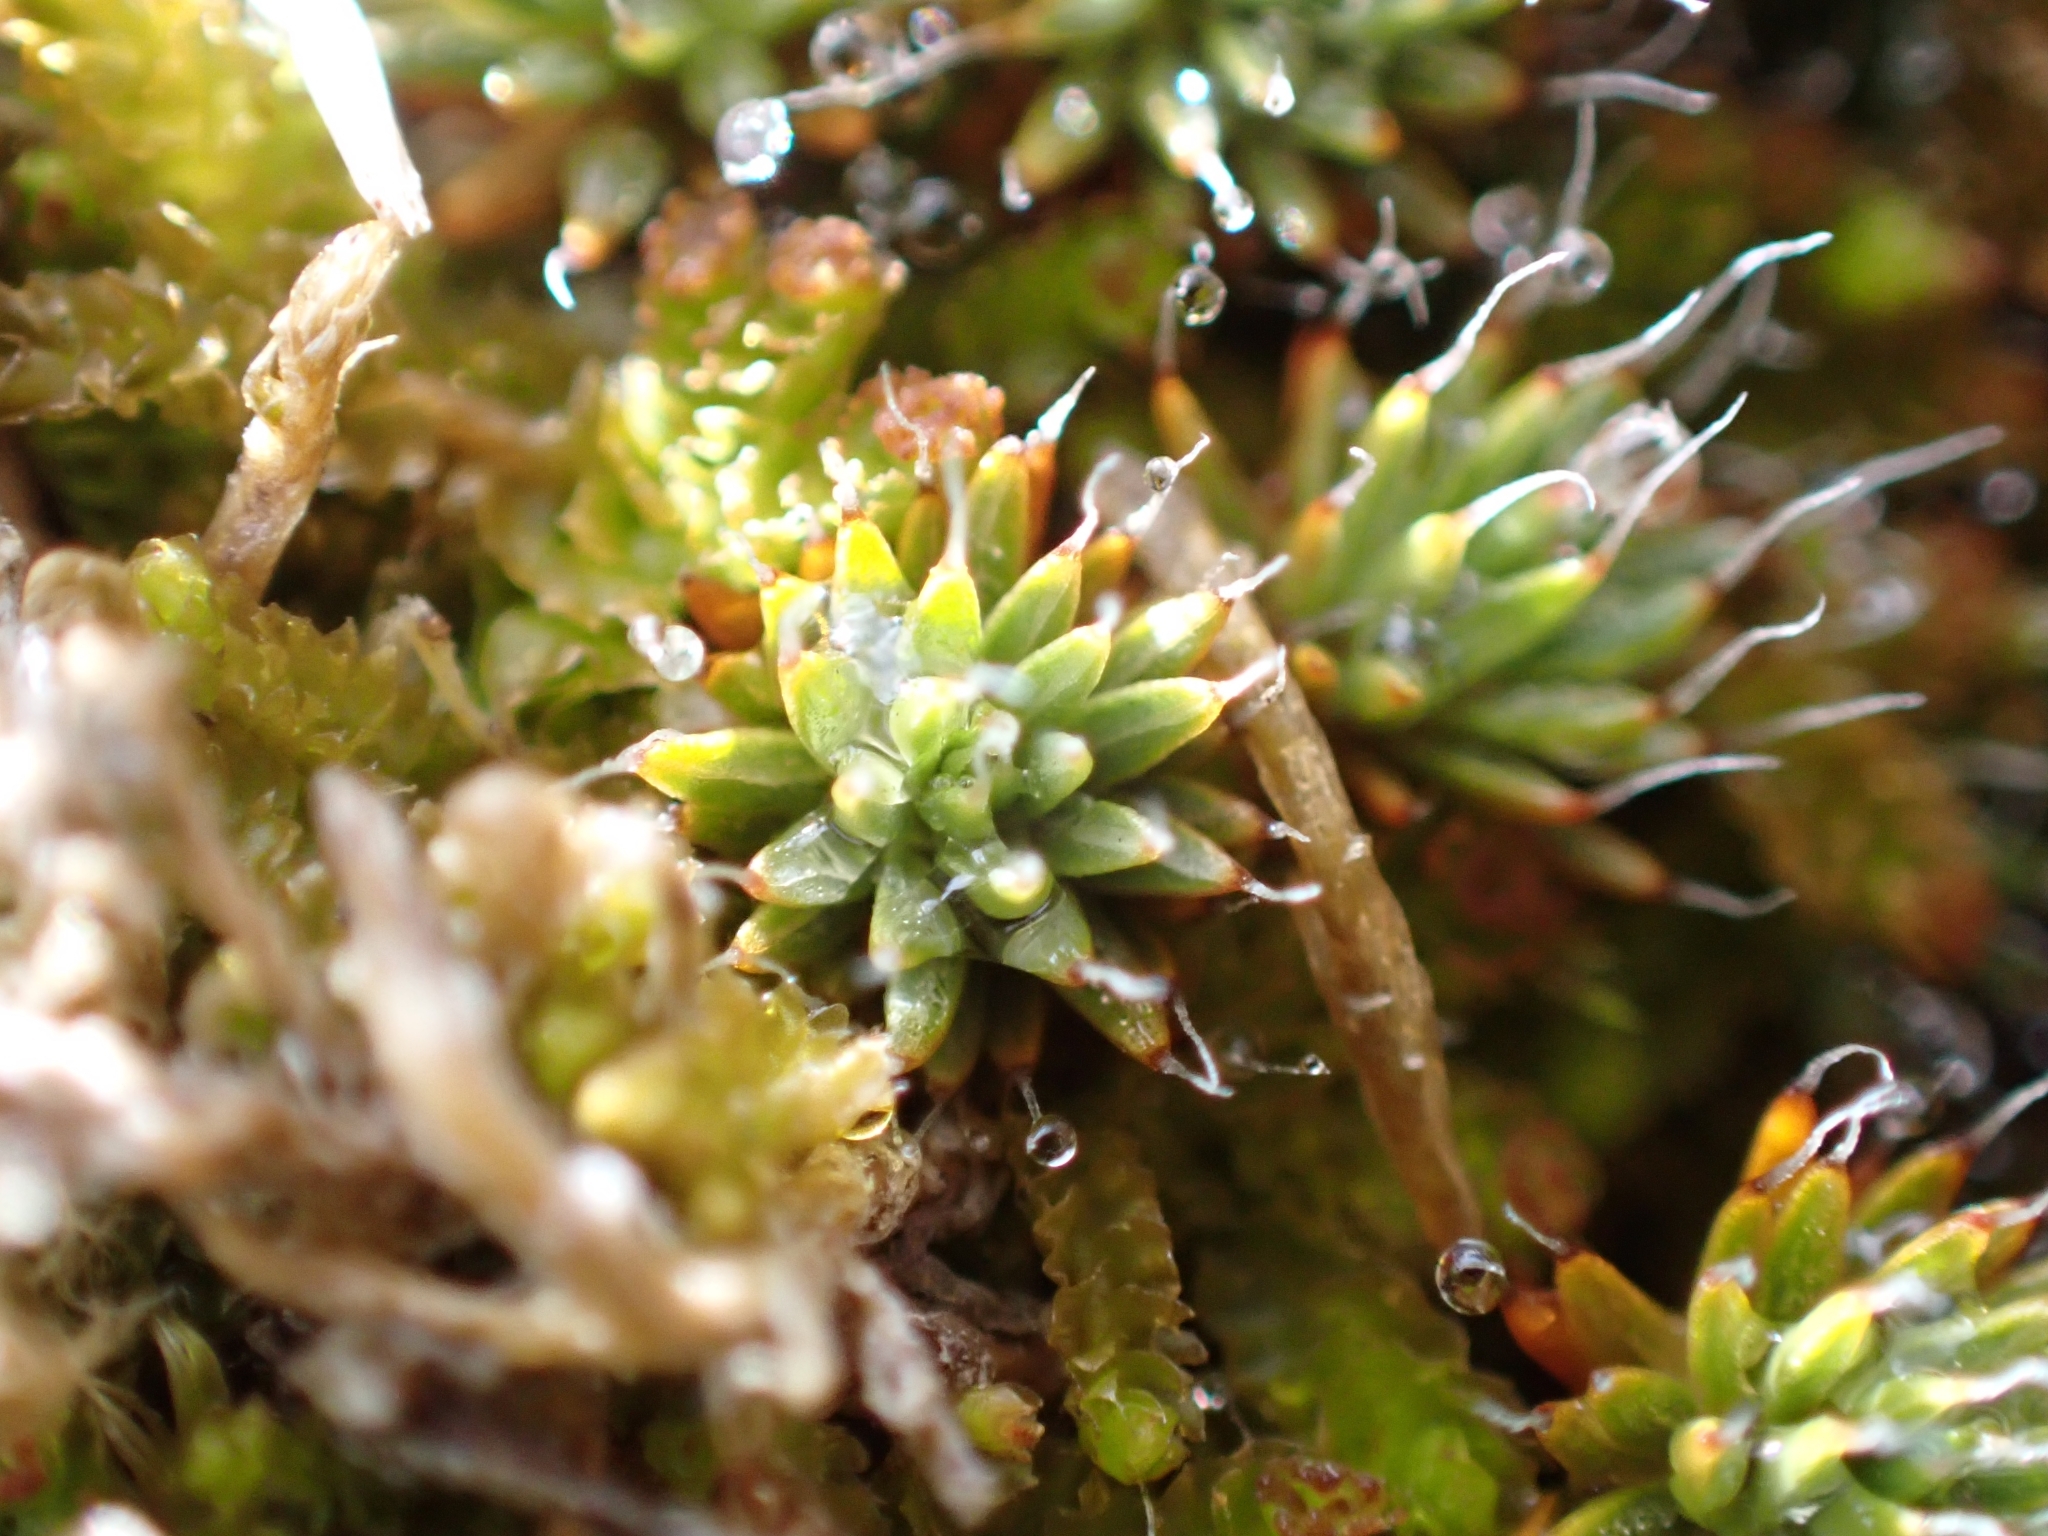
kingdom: Plantae
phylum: Bryophyta
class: Polytrichopsida
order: Polytrichales
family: Polytrichaceae
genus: Polytrichum
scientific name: Polytrichum piliferum
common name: Bristly haircap
